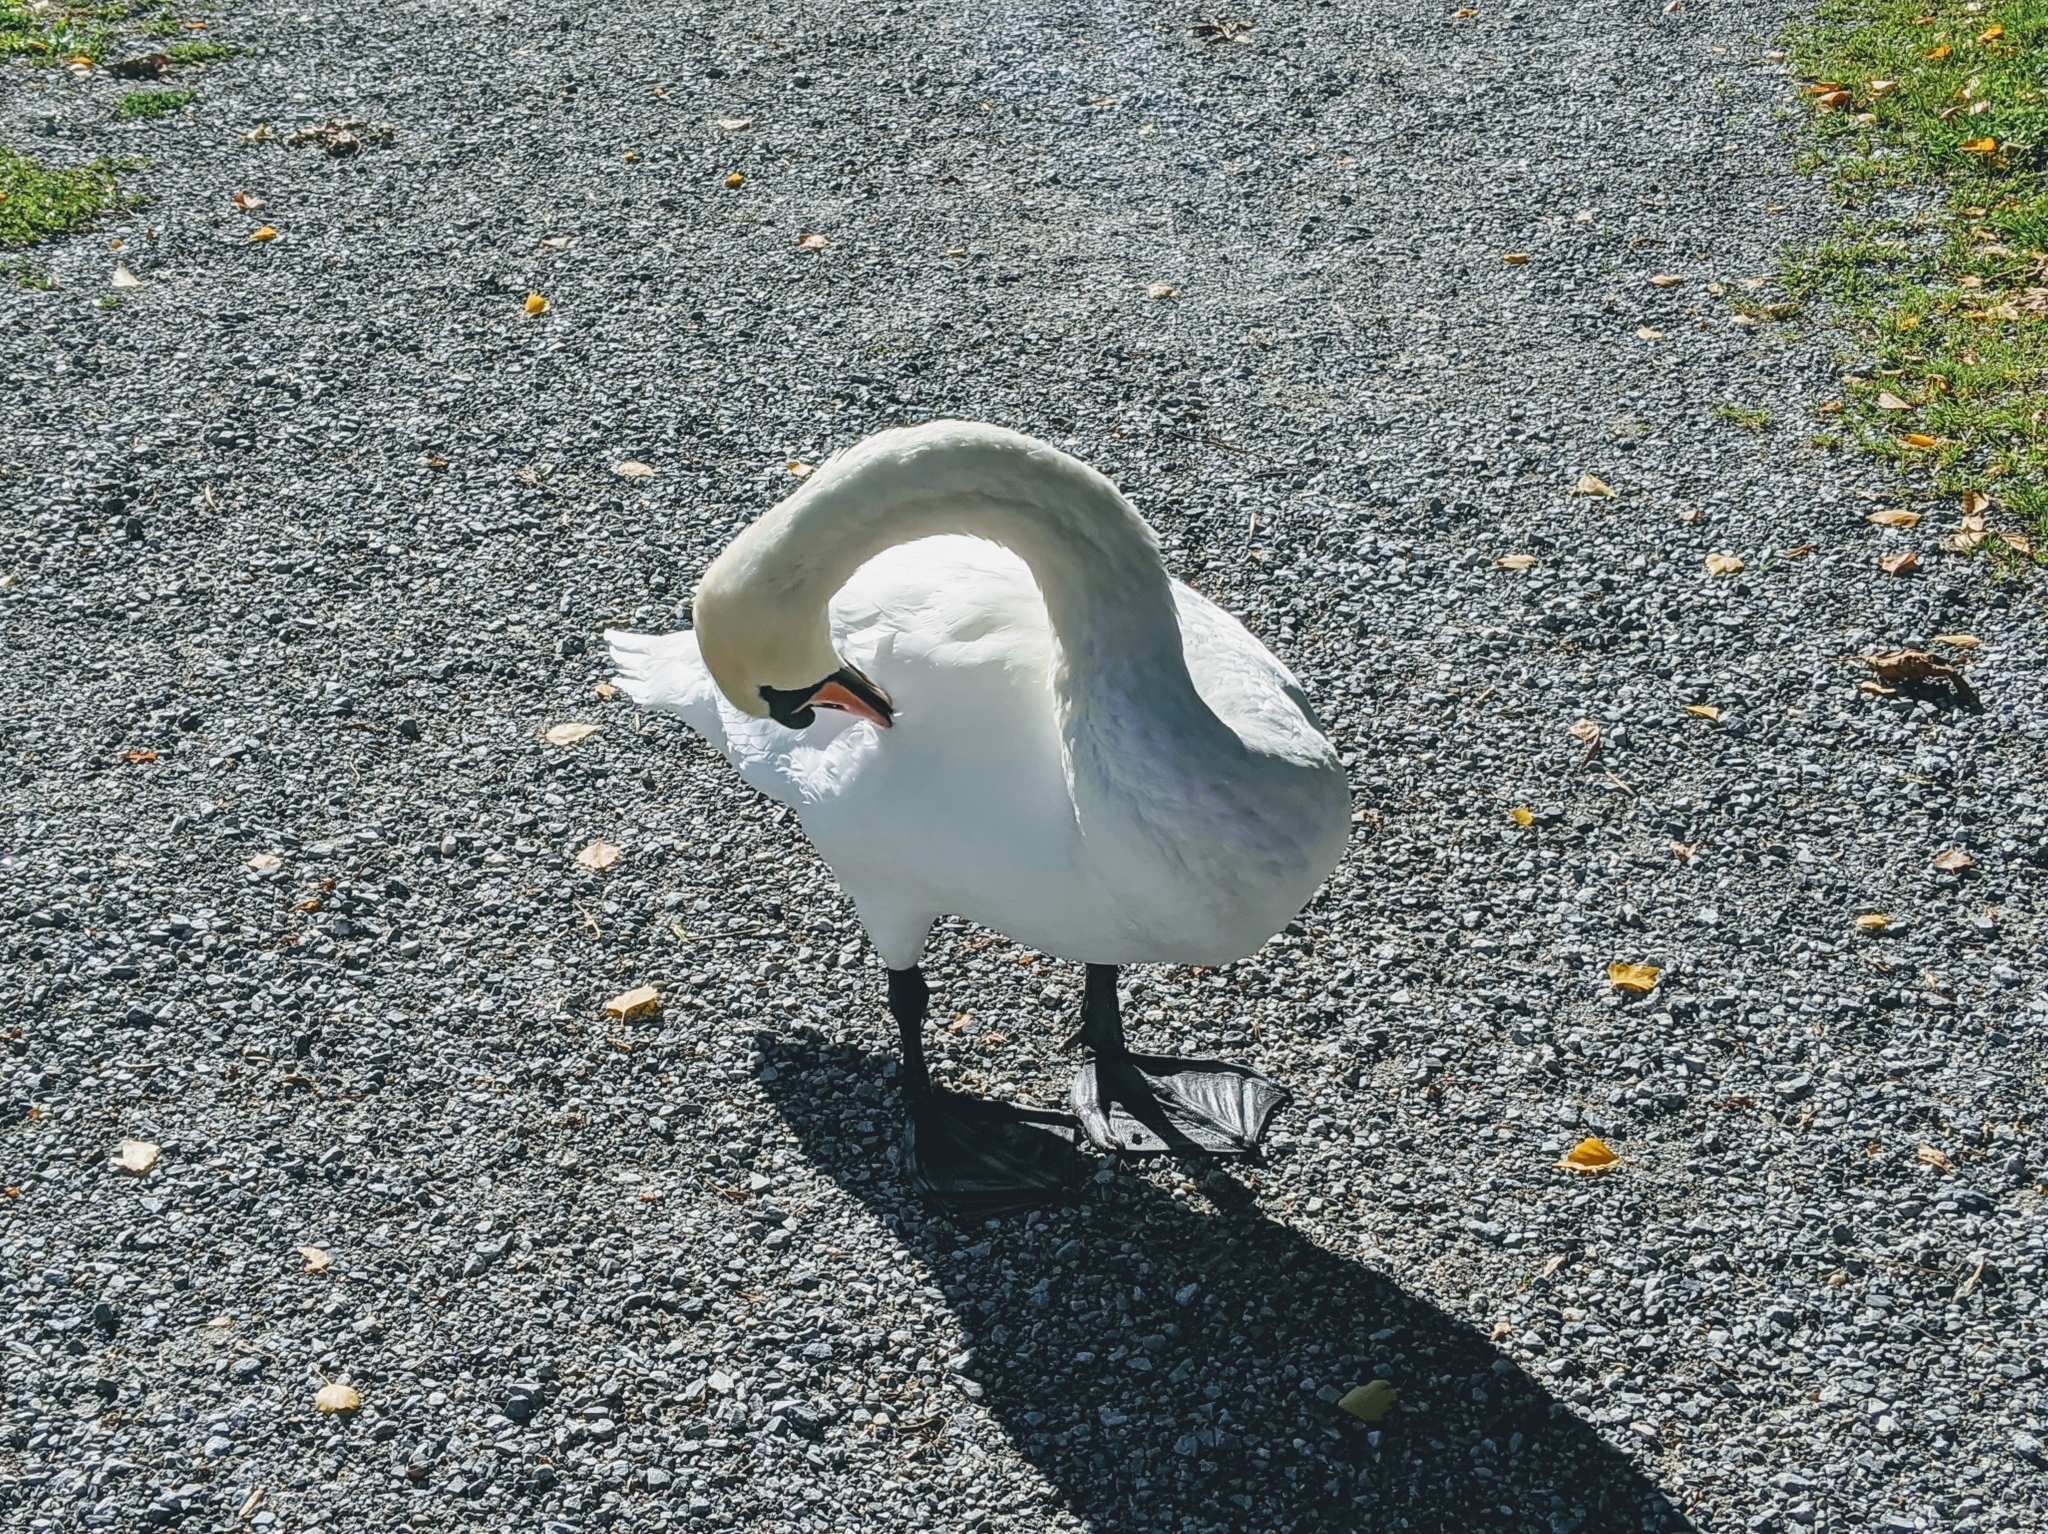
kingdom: Animalia
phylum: Chordata
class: Aves
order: Anseriformes
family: Anatidae
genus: Cygnus
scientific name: Cygnus olor
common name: Mute swan
